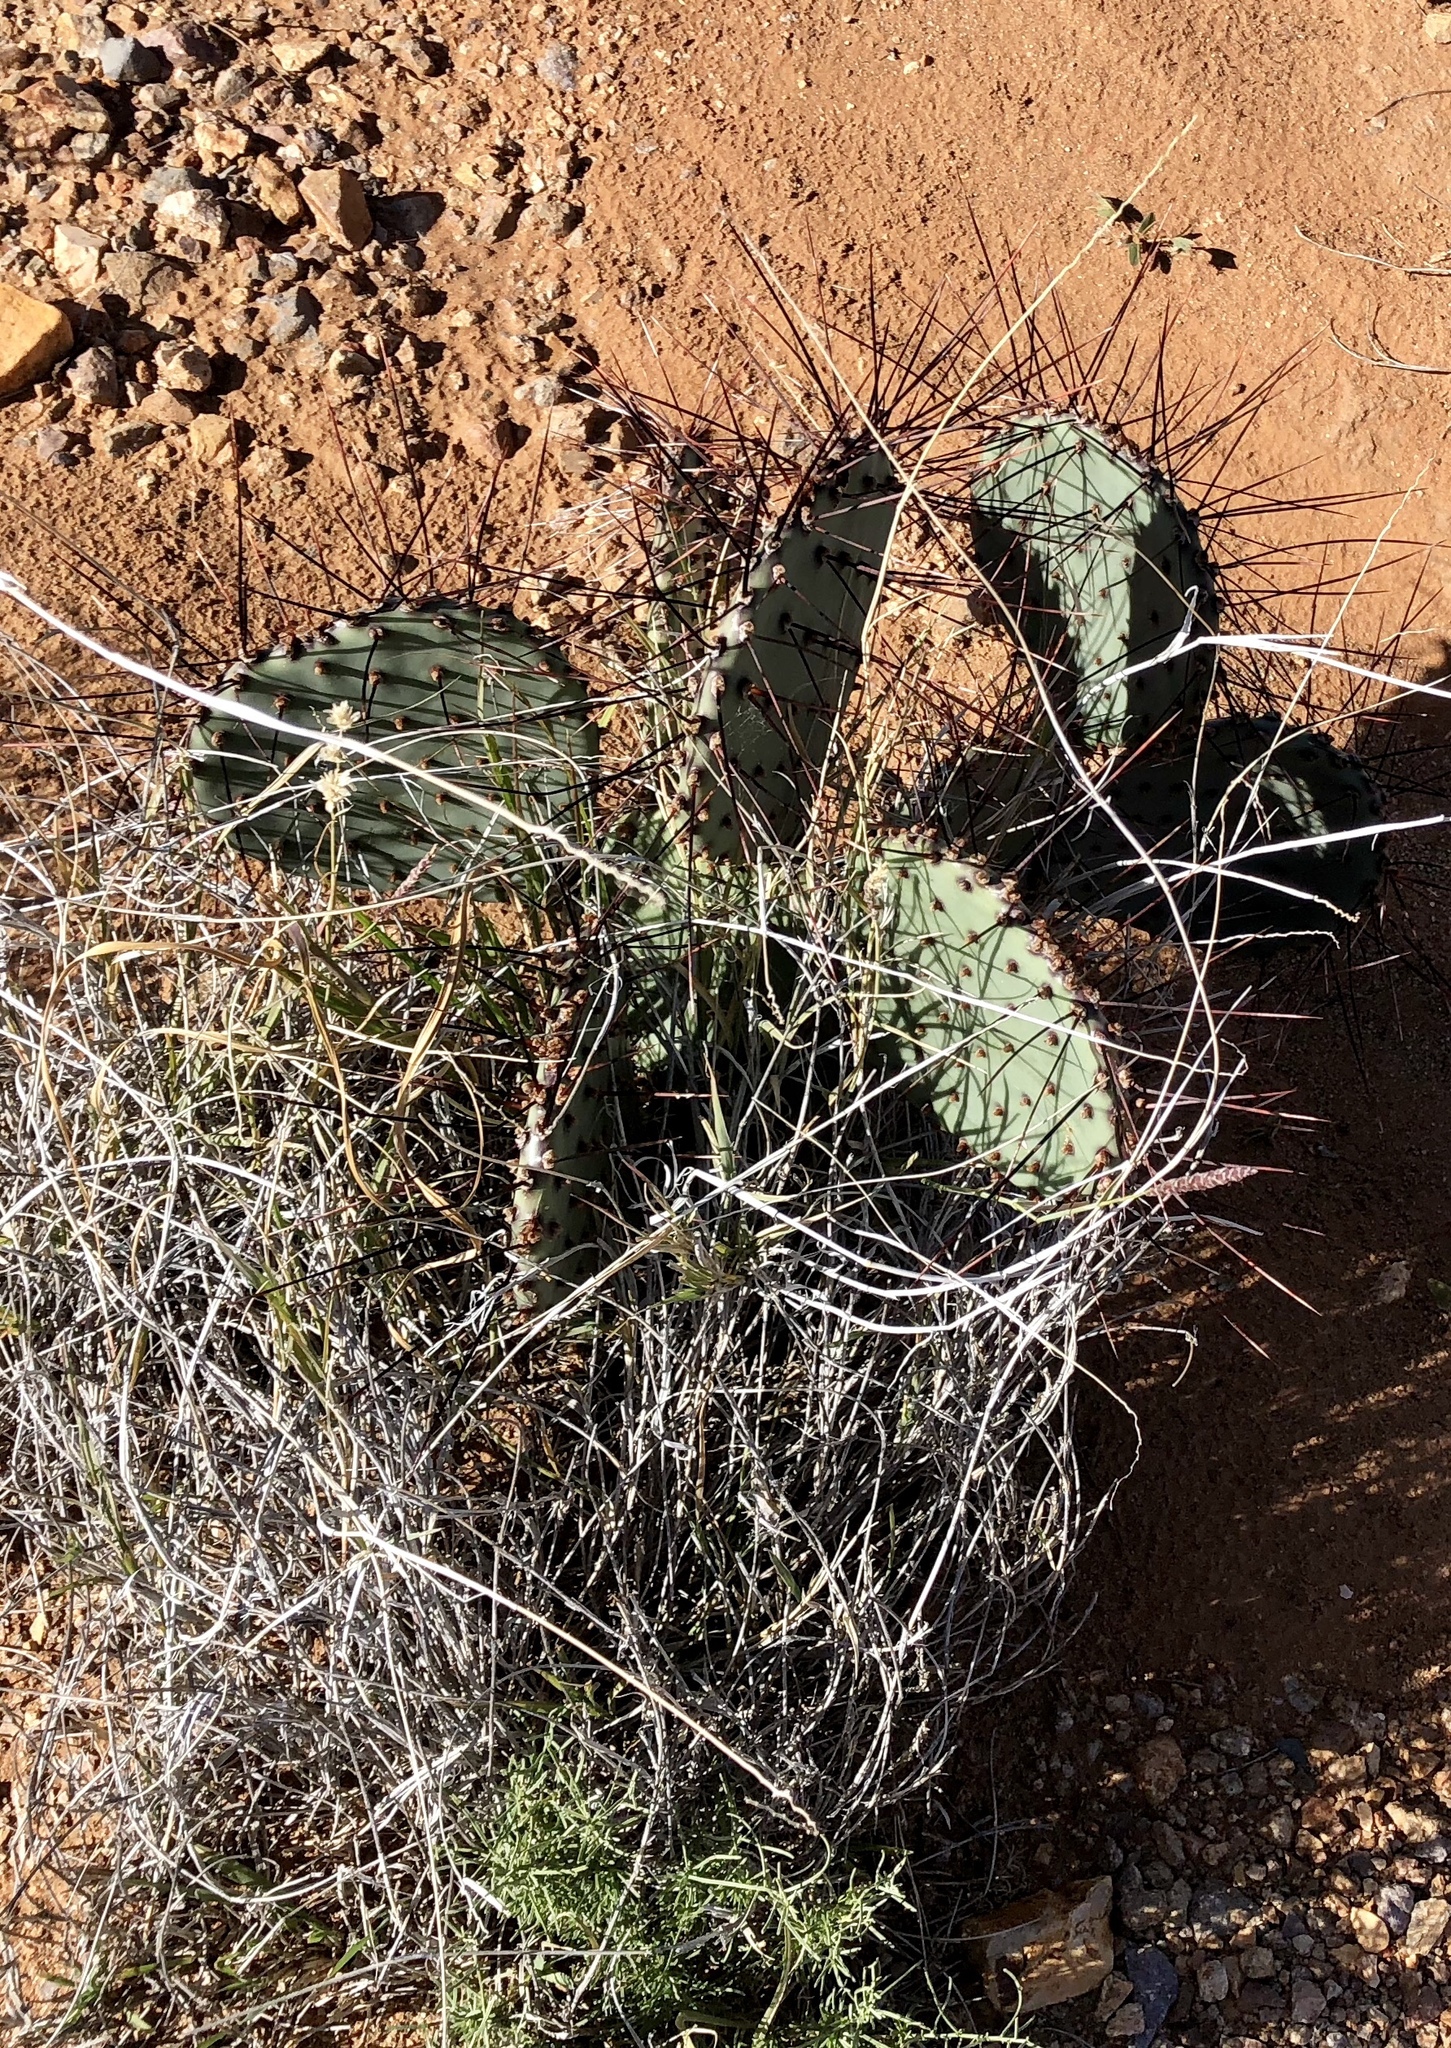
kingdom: Plantae
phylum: Tracheophyta
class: Magnoliopsida
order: Caryophyllales
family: Cactaceae
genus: Opuntia
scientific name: Opuntia macrocentra
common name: Purple prickly-pear
